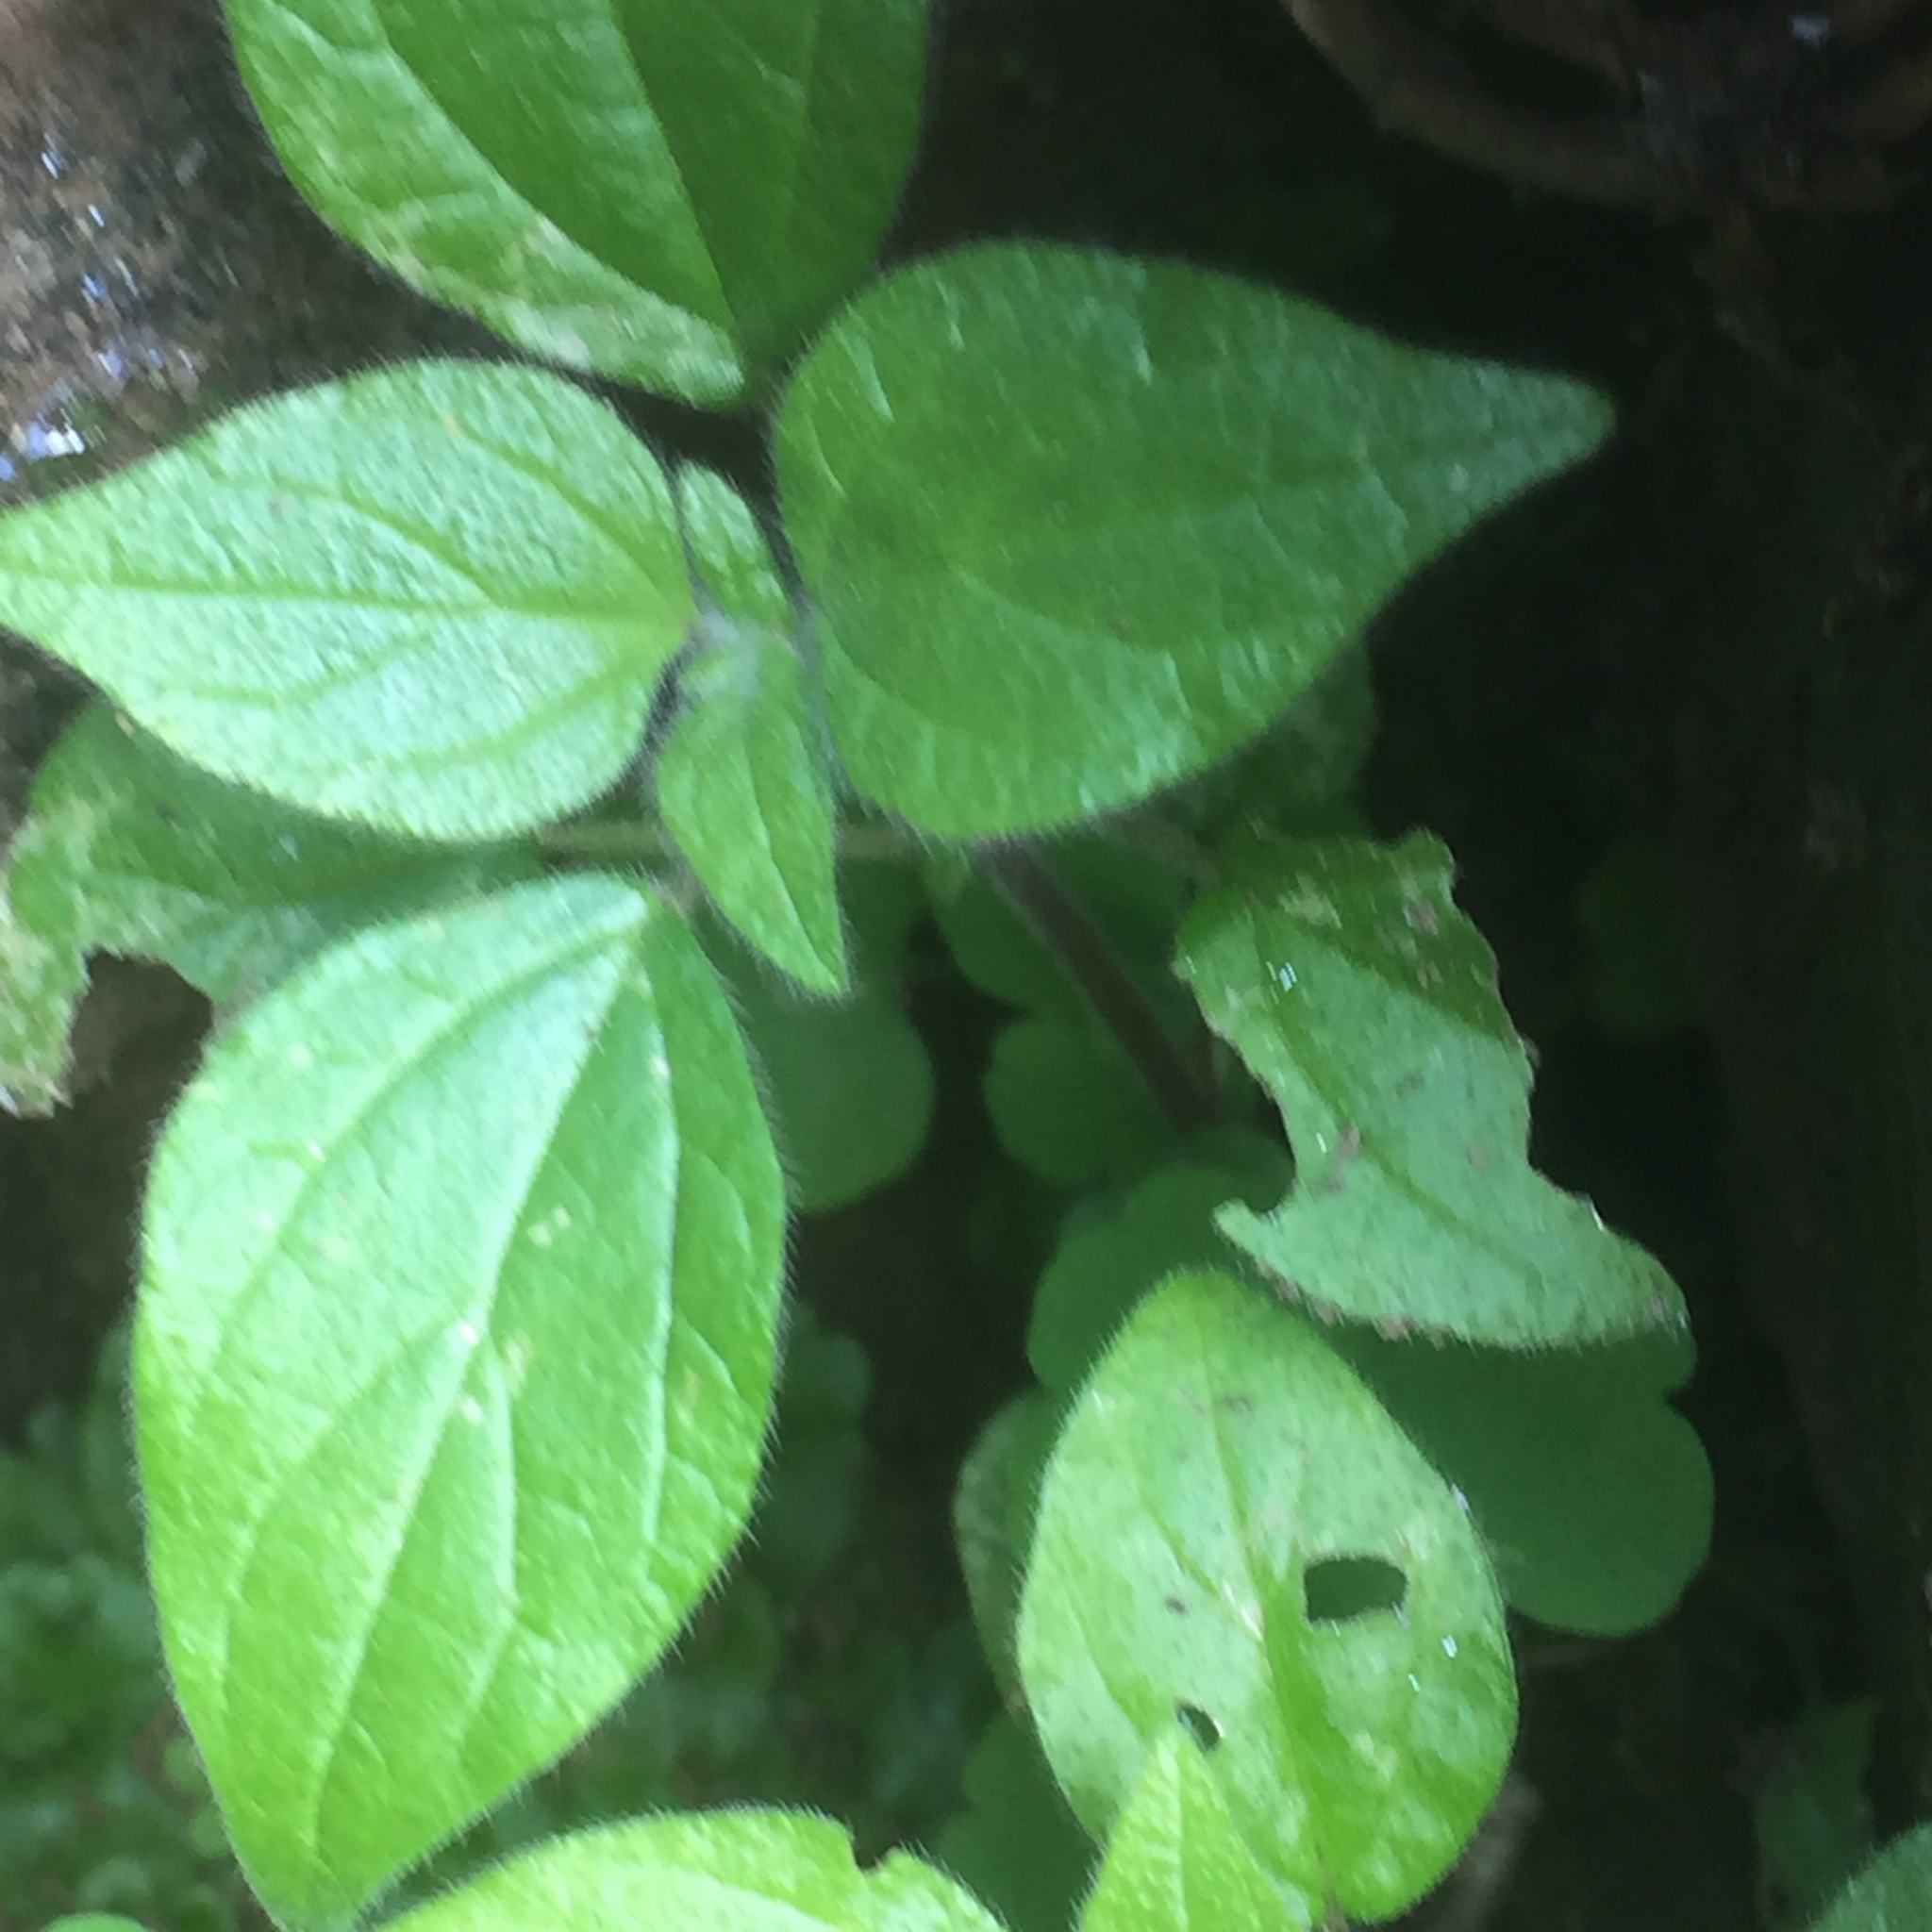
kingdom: Plantae
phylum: Tracheophyta
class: Magnoliopsida
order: Rosales
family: Urticaceae
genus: Parietaria
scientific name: Parietaria judaica
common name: Pellitory-of-the-wall
